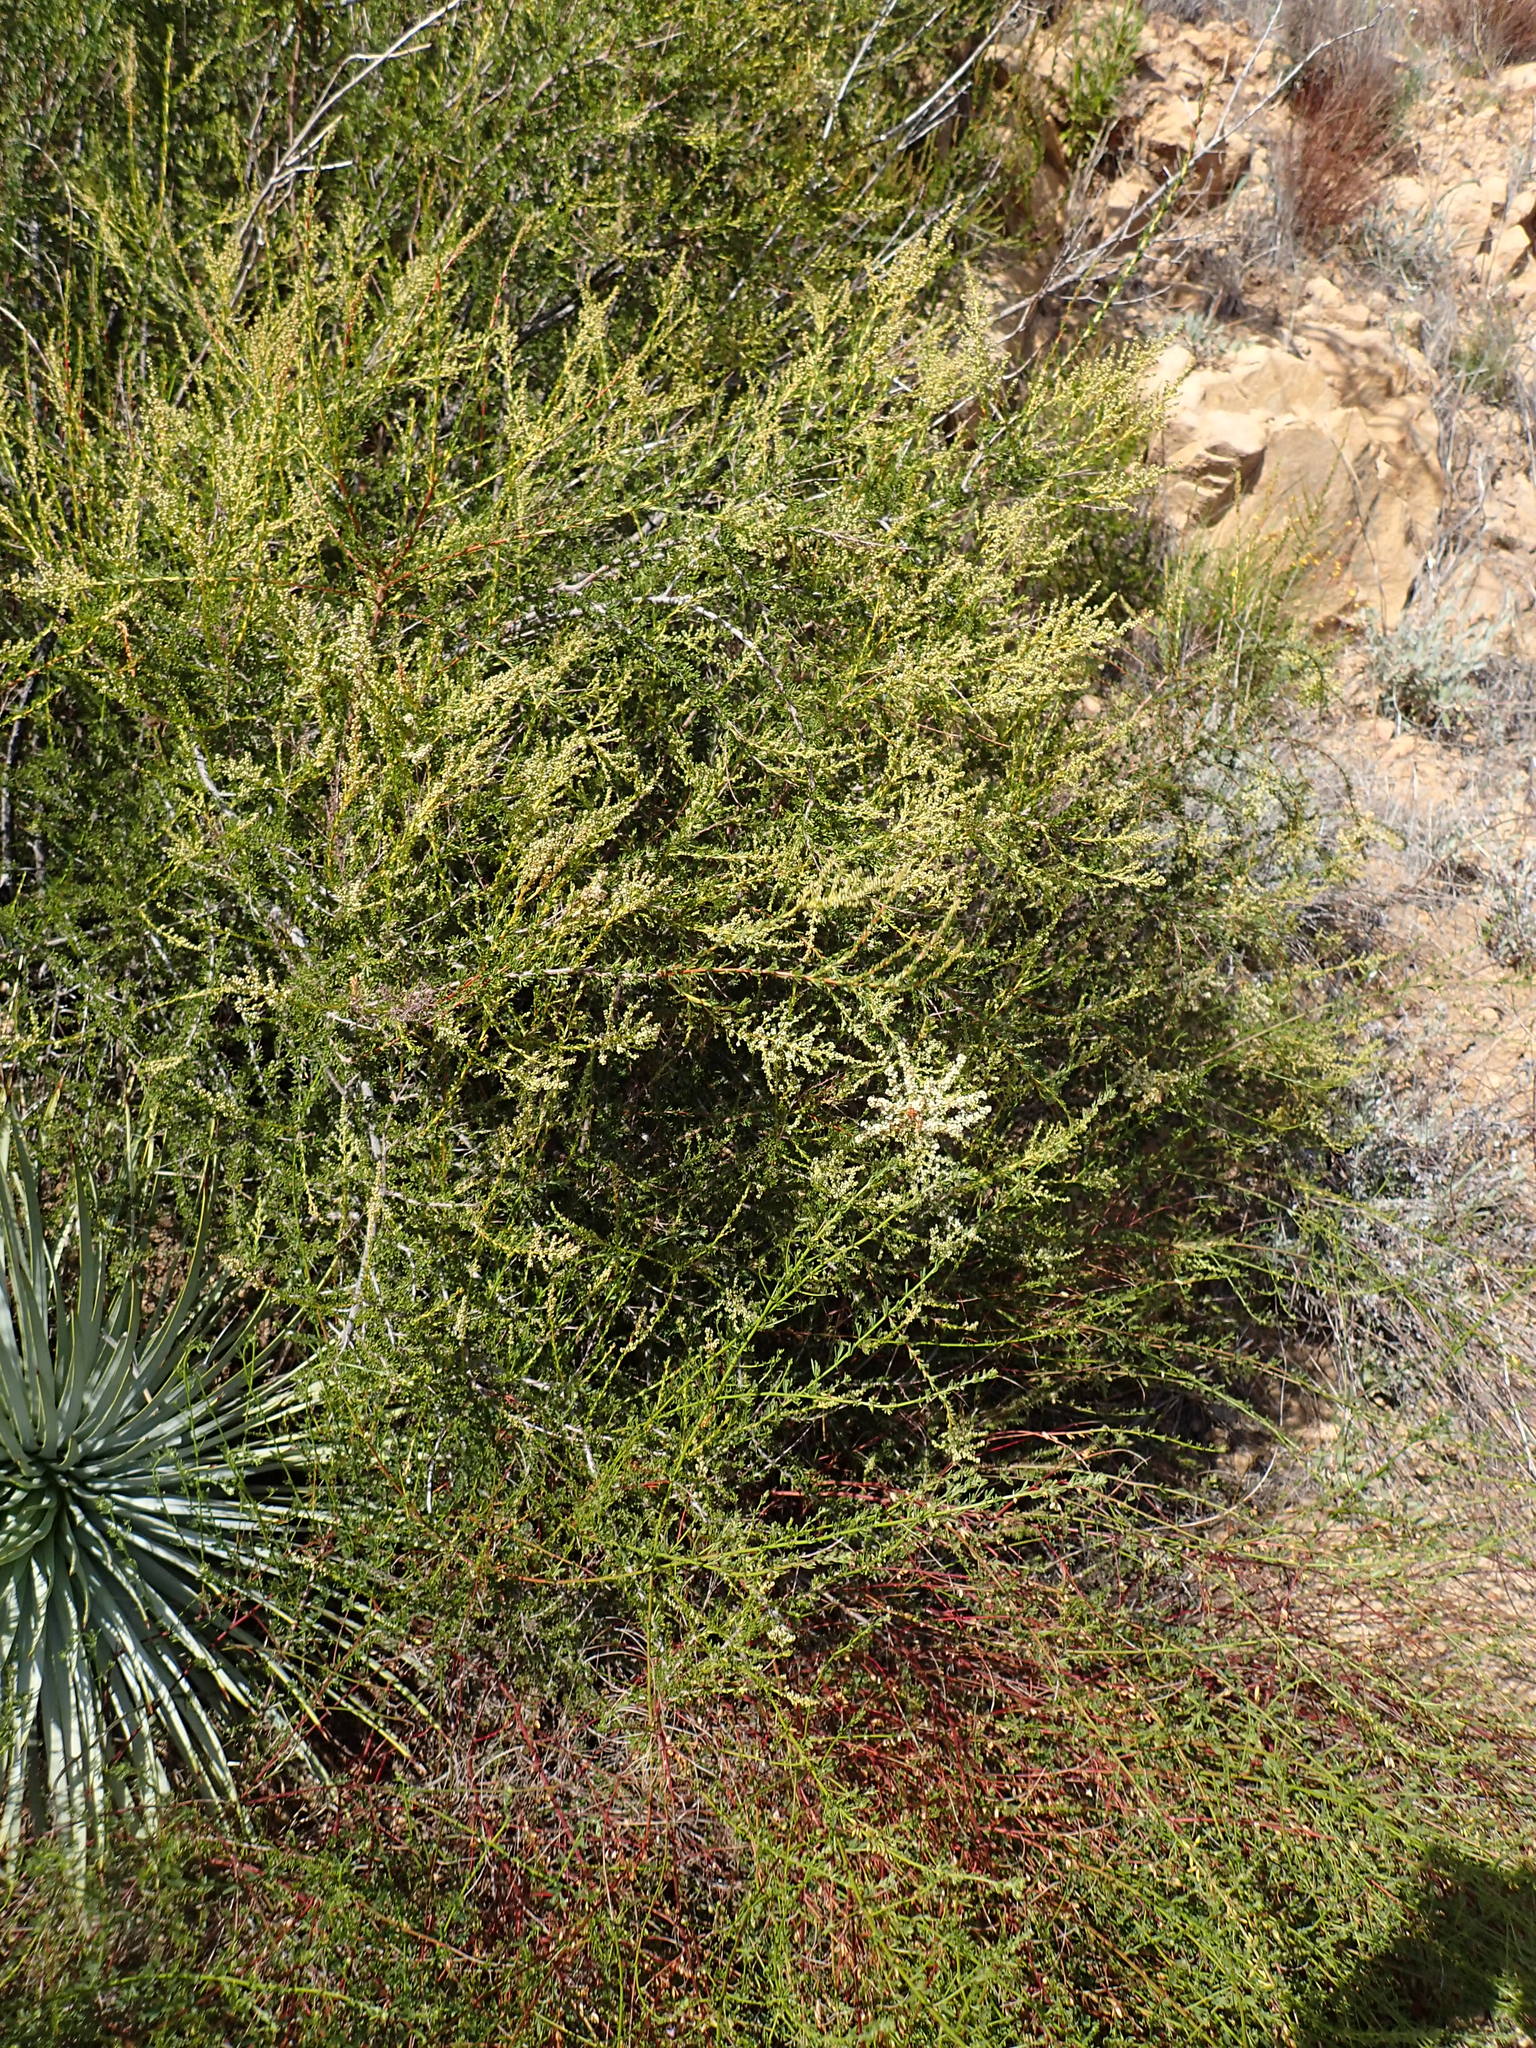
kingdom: Plantae
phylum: Tracheophyta
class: Magnoliopsida
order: Rosales
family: Rosaceae
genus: Adenostoma
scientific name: Adenostoma fasciculatum
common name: Chamise
